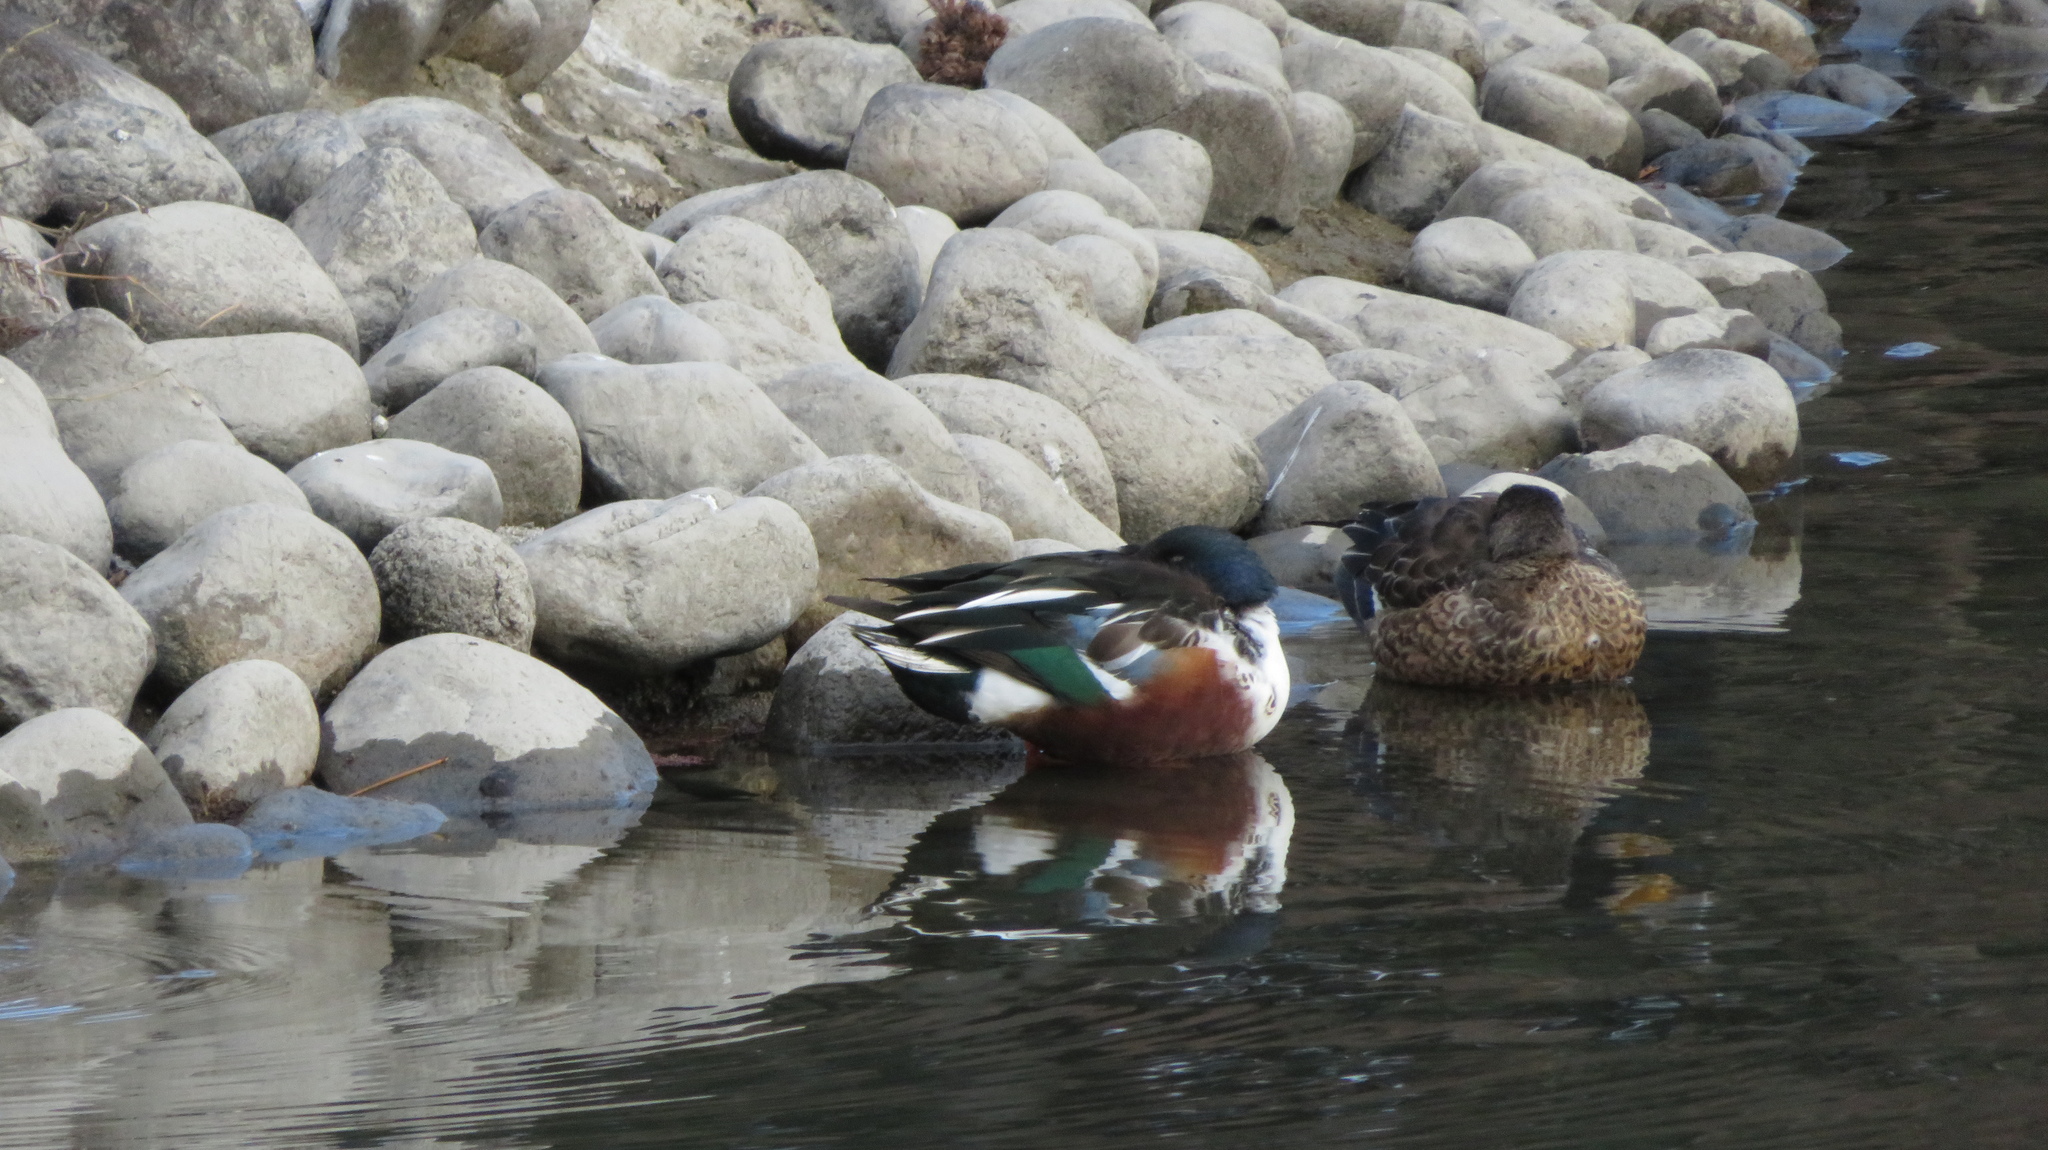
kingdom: Animalia
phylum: Chordata
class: Aves
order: Anseriformes
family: Anatidae
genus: Spatula
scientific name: Spatula clypeata
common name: Northern shoveler
